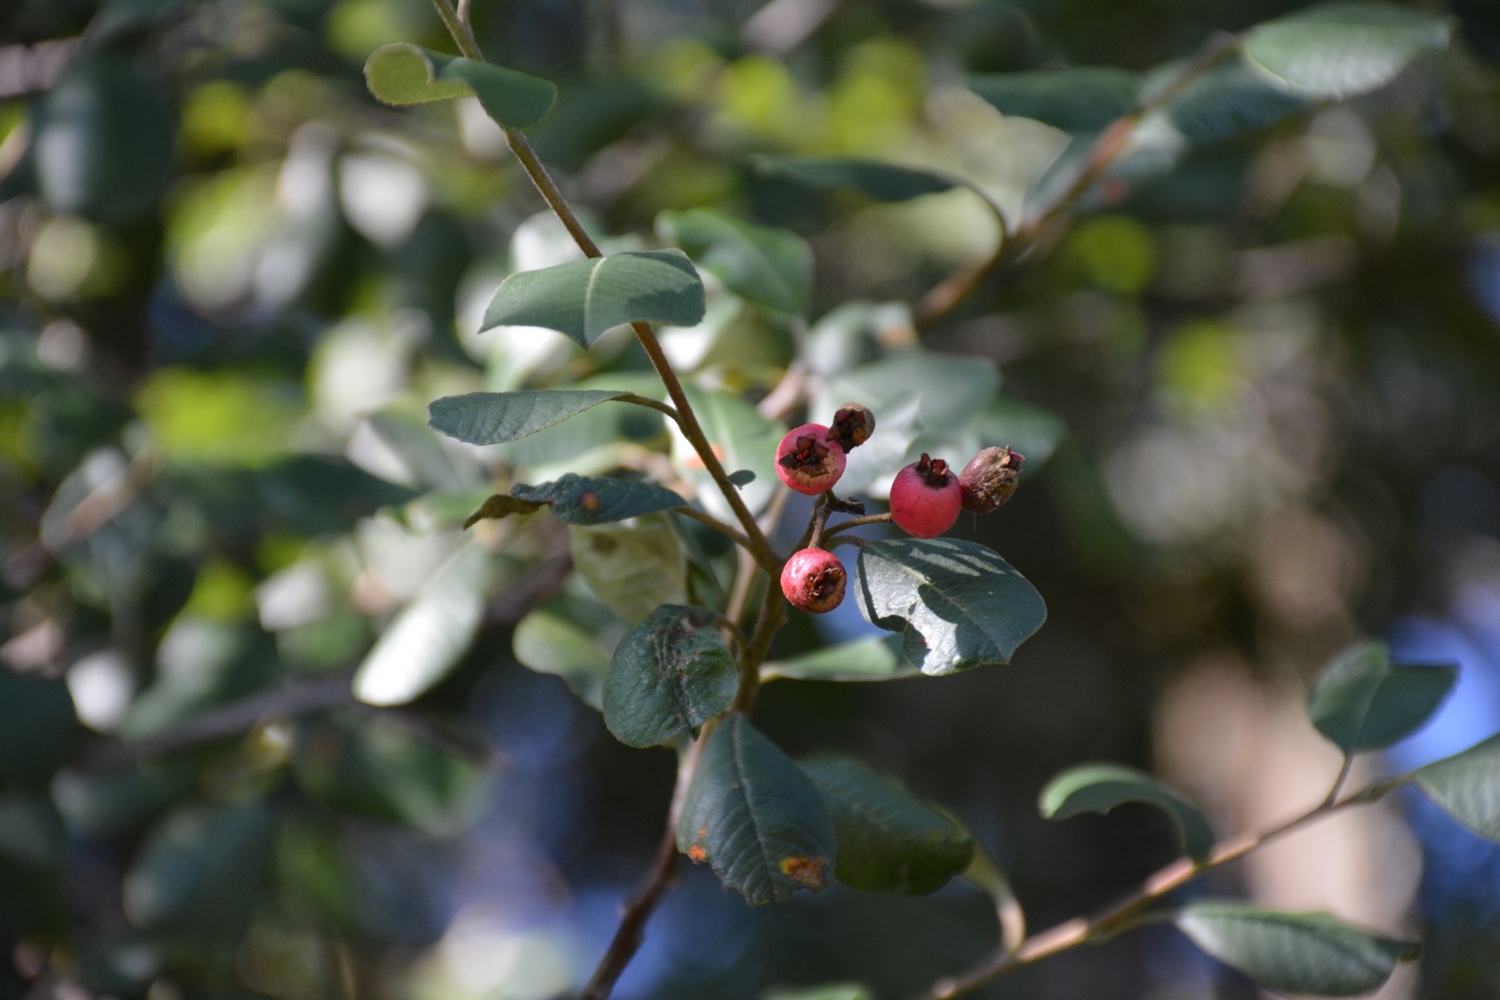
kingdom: Plantae
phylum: Tracheophyta
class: Magnoliopsida
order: Rosales
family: Rosaceae
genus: Malacomeles
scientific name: Malacomeles nervosa
